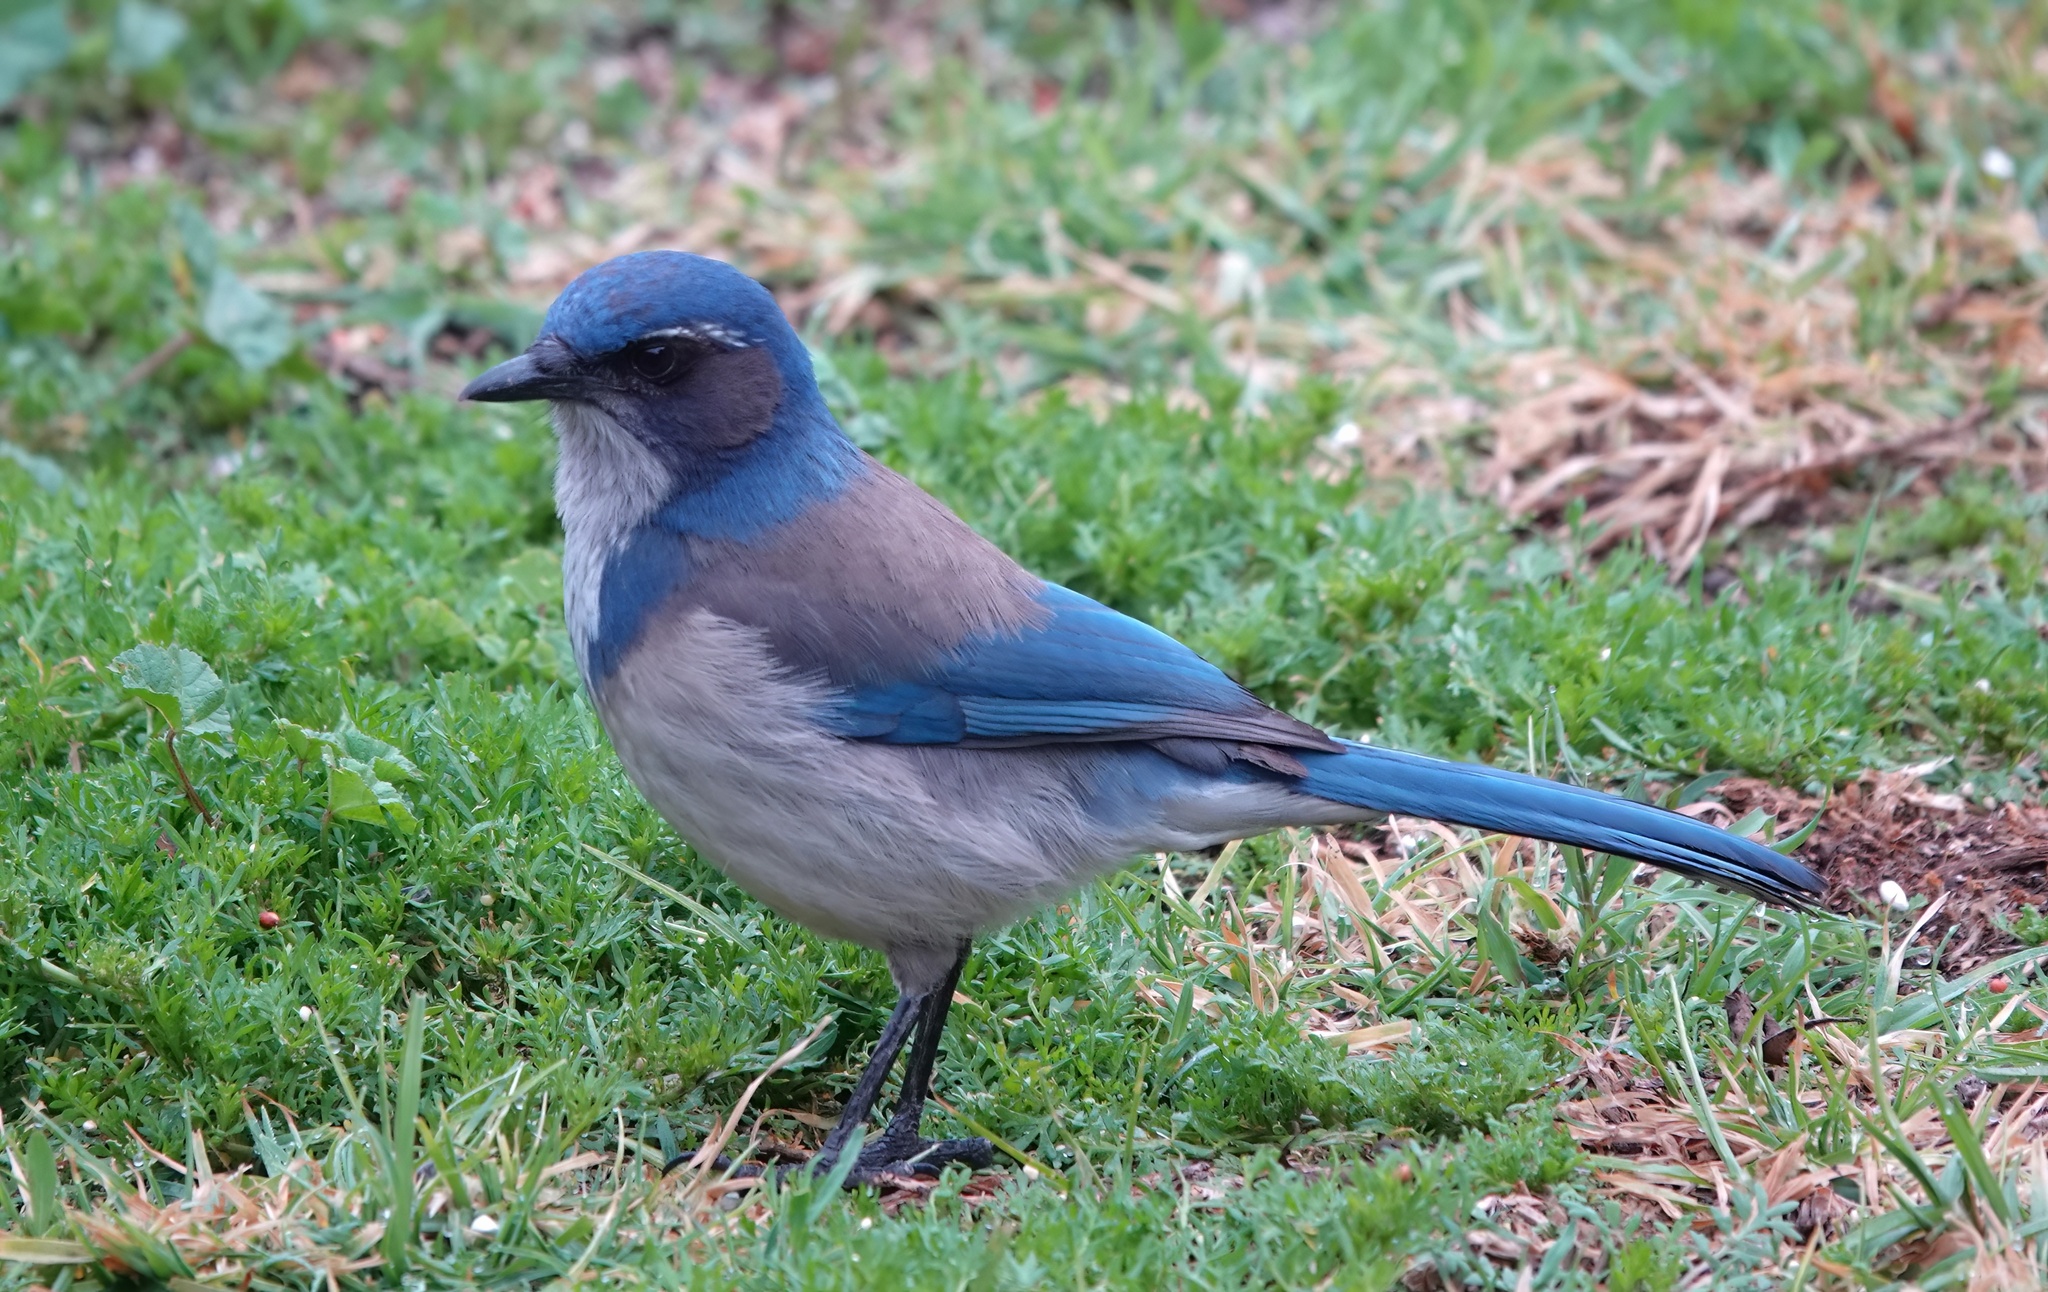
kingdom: Animalia
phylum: Chordata
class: Aves
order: Passeriformes
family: Corvidae
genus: Aphelocoma
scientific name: Aphelocoma californica
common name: California scrub-jay
